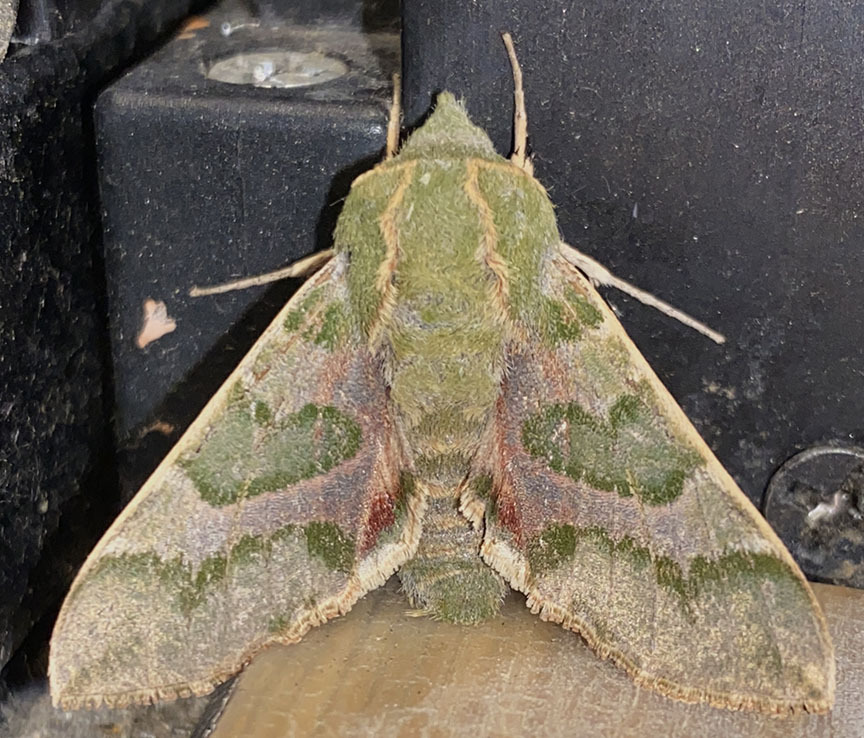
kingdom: Animalia
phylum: Arthropoda
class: Insecta
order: Lepidoptera
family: Sphingidae
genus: Proserpinus
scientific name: Proserpinus lucidus
